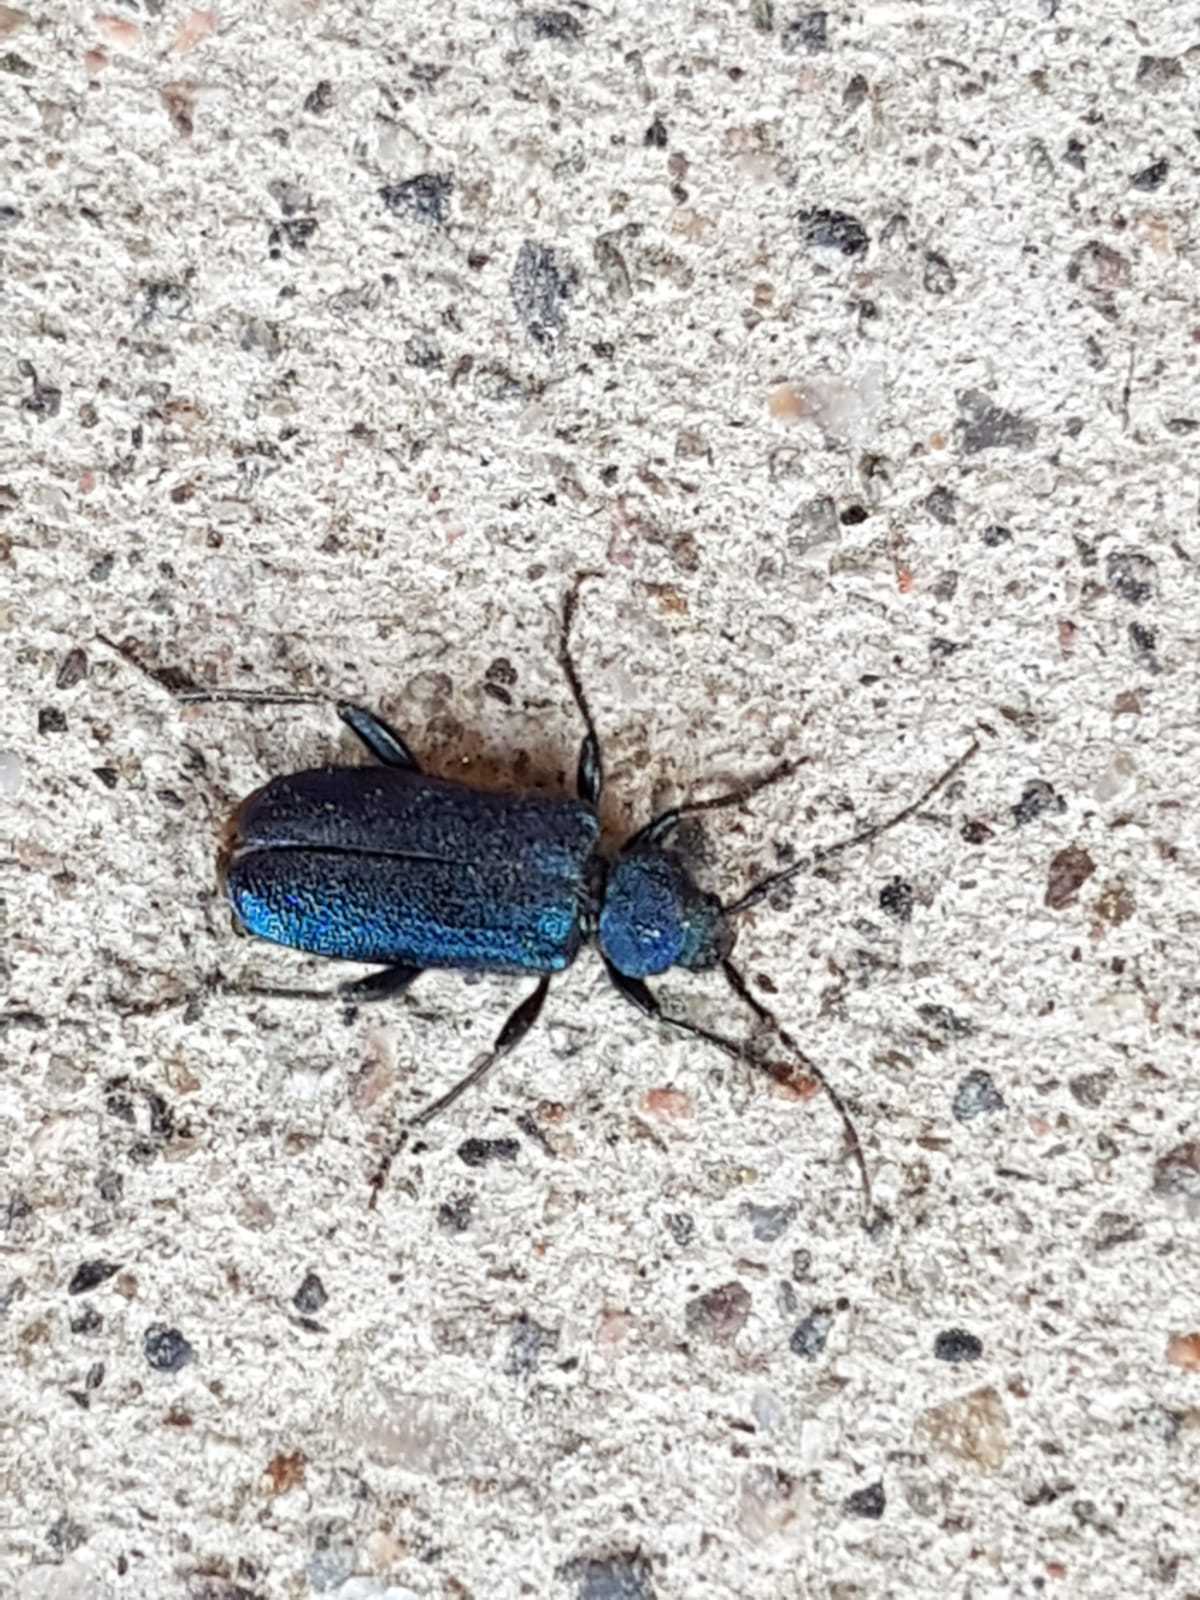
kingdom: Animalia
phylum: Arthropoda
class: Insecta
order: Coleoptera
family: Cerambycidae
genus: Callidium
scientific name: Callidium violaceum
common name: Violet tanbark beetle
